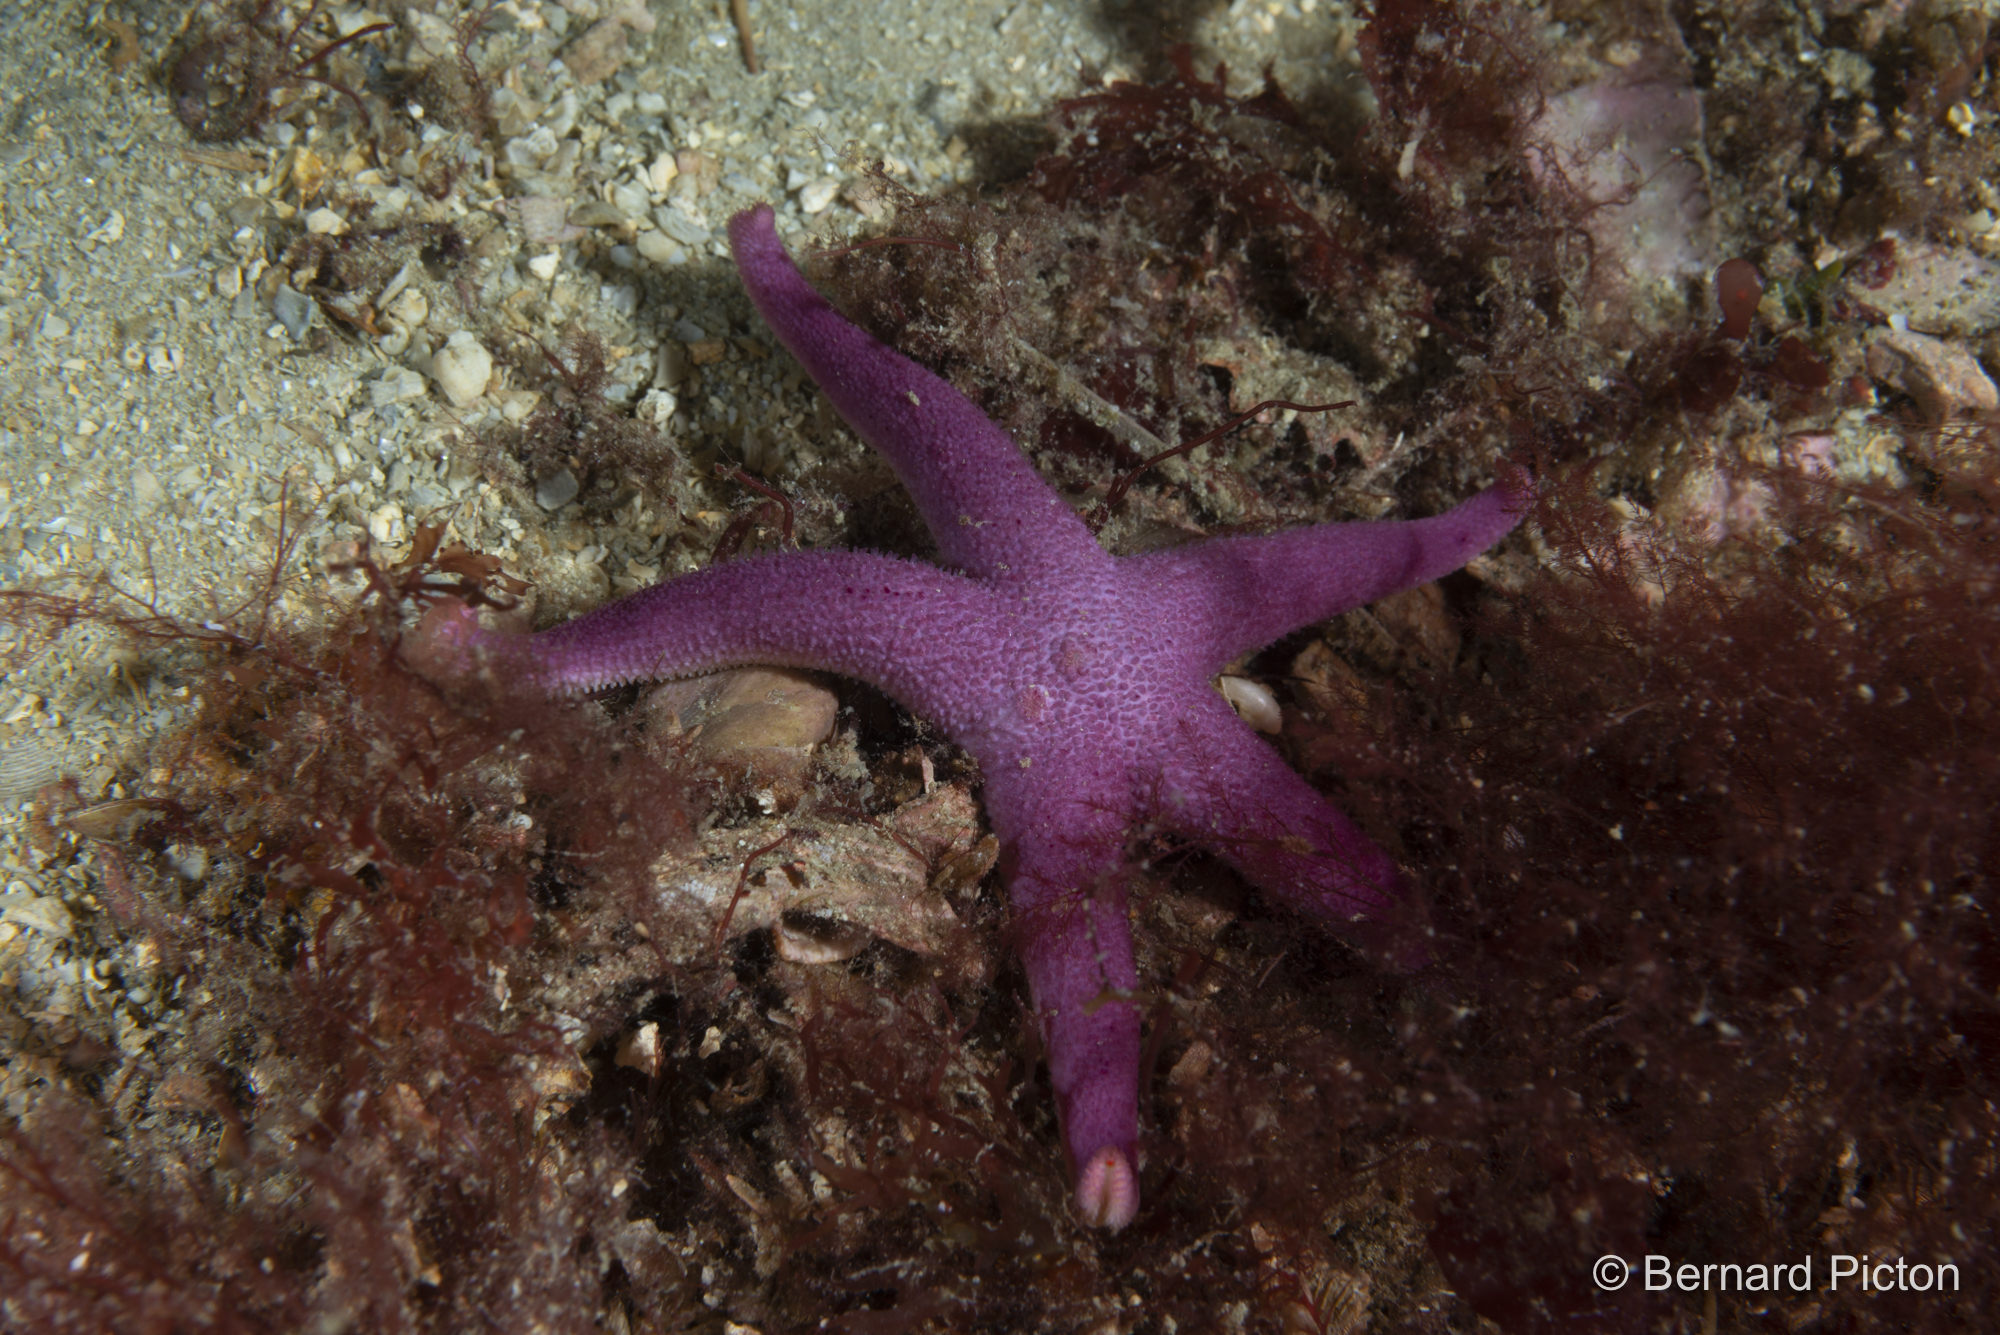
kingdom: Animalia
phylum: Echinodermata
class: Asteroidea
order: Spinulosida
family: Echinasteridae
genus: Henricia
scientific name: Henricia oculata
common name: Bloody henry starfish
